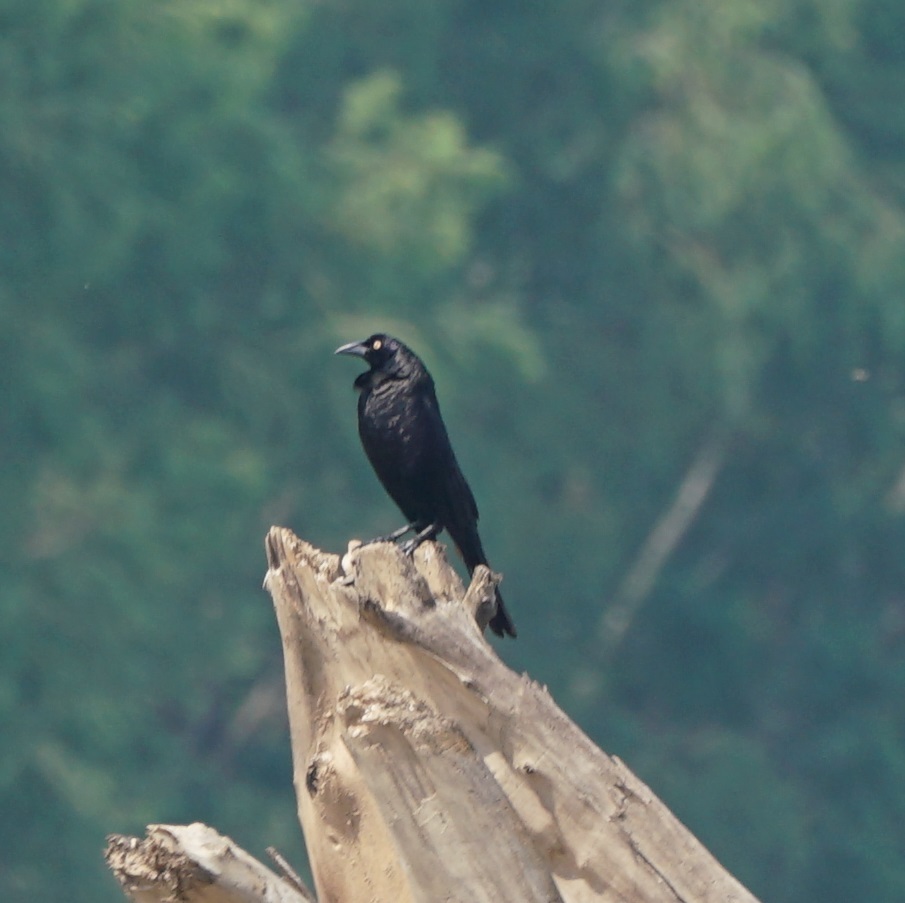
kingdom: Animalia
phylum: Chordata
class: Aves
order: Passeriformes
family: Icteridae
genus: Molothrus
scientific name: Molothrus oryzivorus
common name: Giant cowbird
